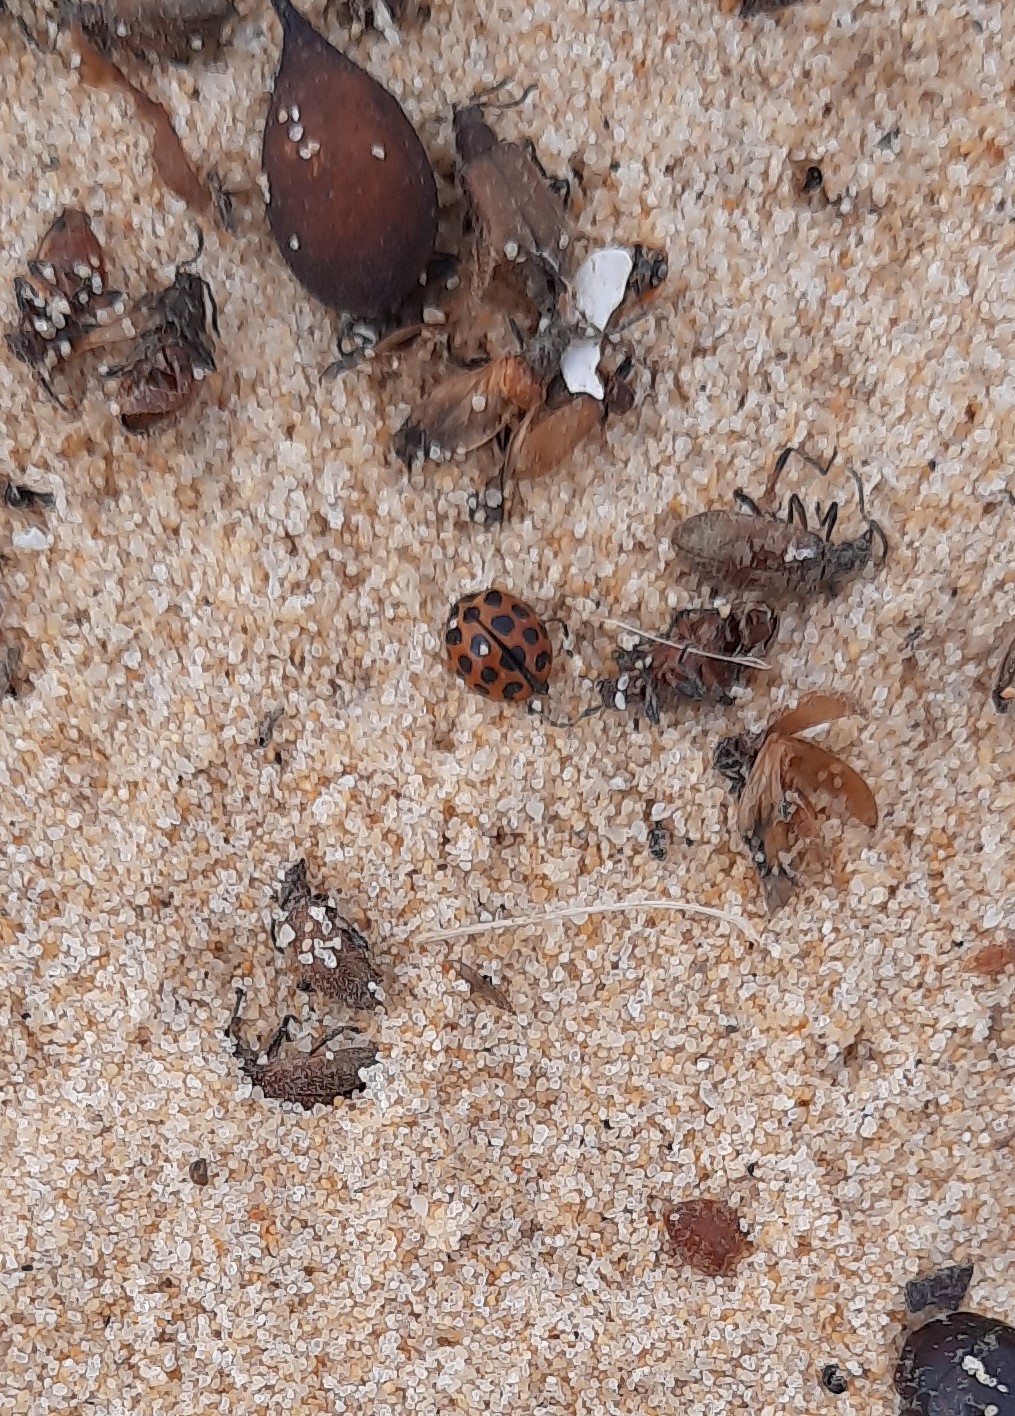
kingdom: Animalia
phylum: Arthropoda
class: Insecta
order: Coleoptera
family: Coccinellidae
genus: Harmonia
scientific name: Harmonia conformis
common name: Common spotted ladybird beetle
